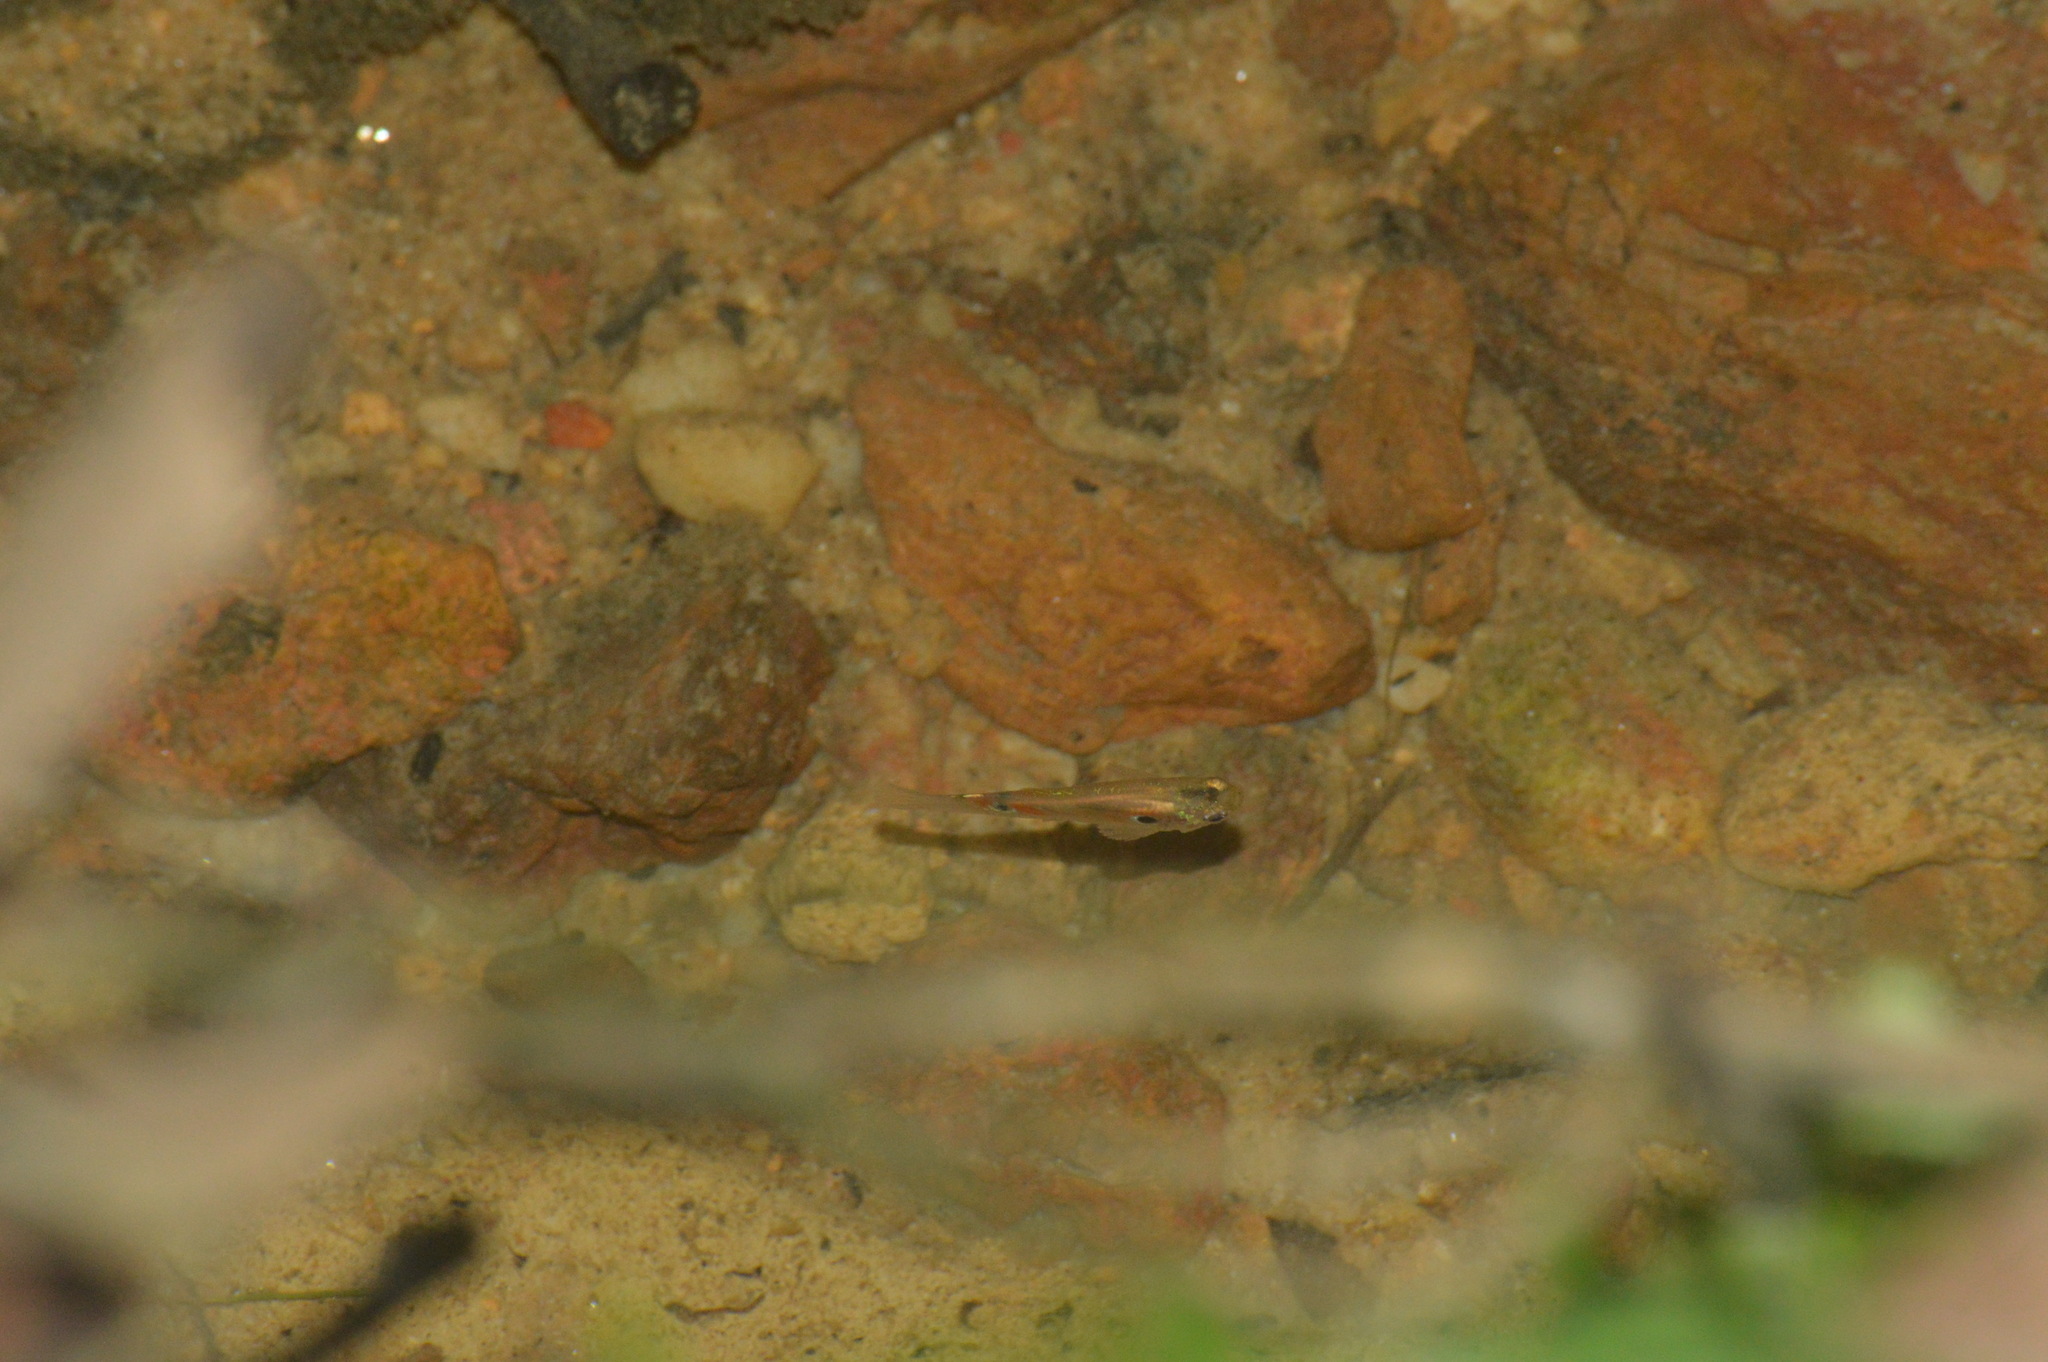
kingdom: Animalia
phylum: Chordata
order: Cyprinodontiformes
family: Poeciliidae
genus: Poecilia
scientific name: Poecilia reticulata
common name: Guppy
